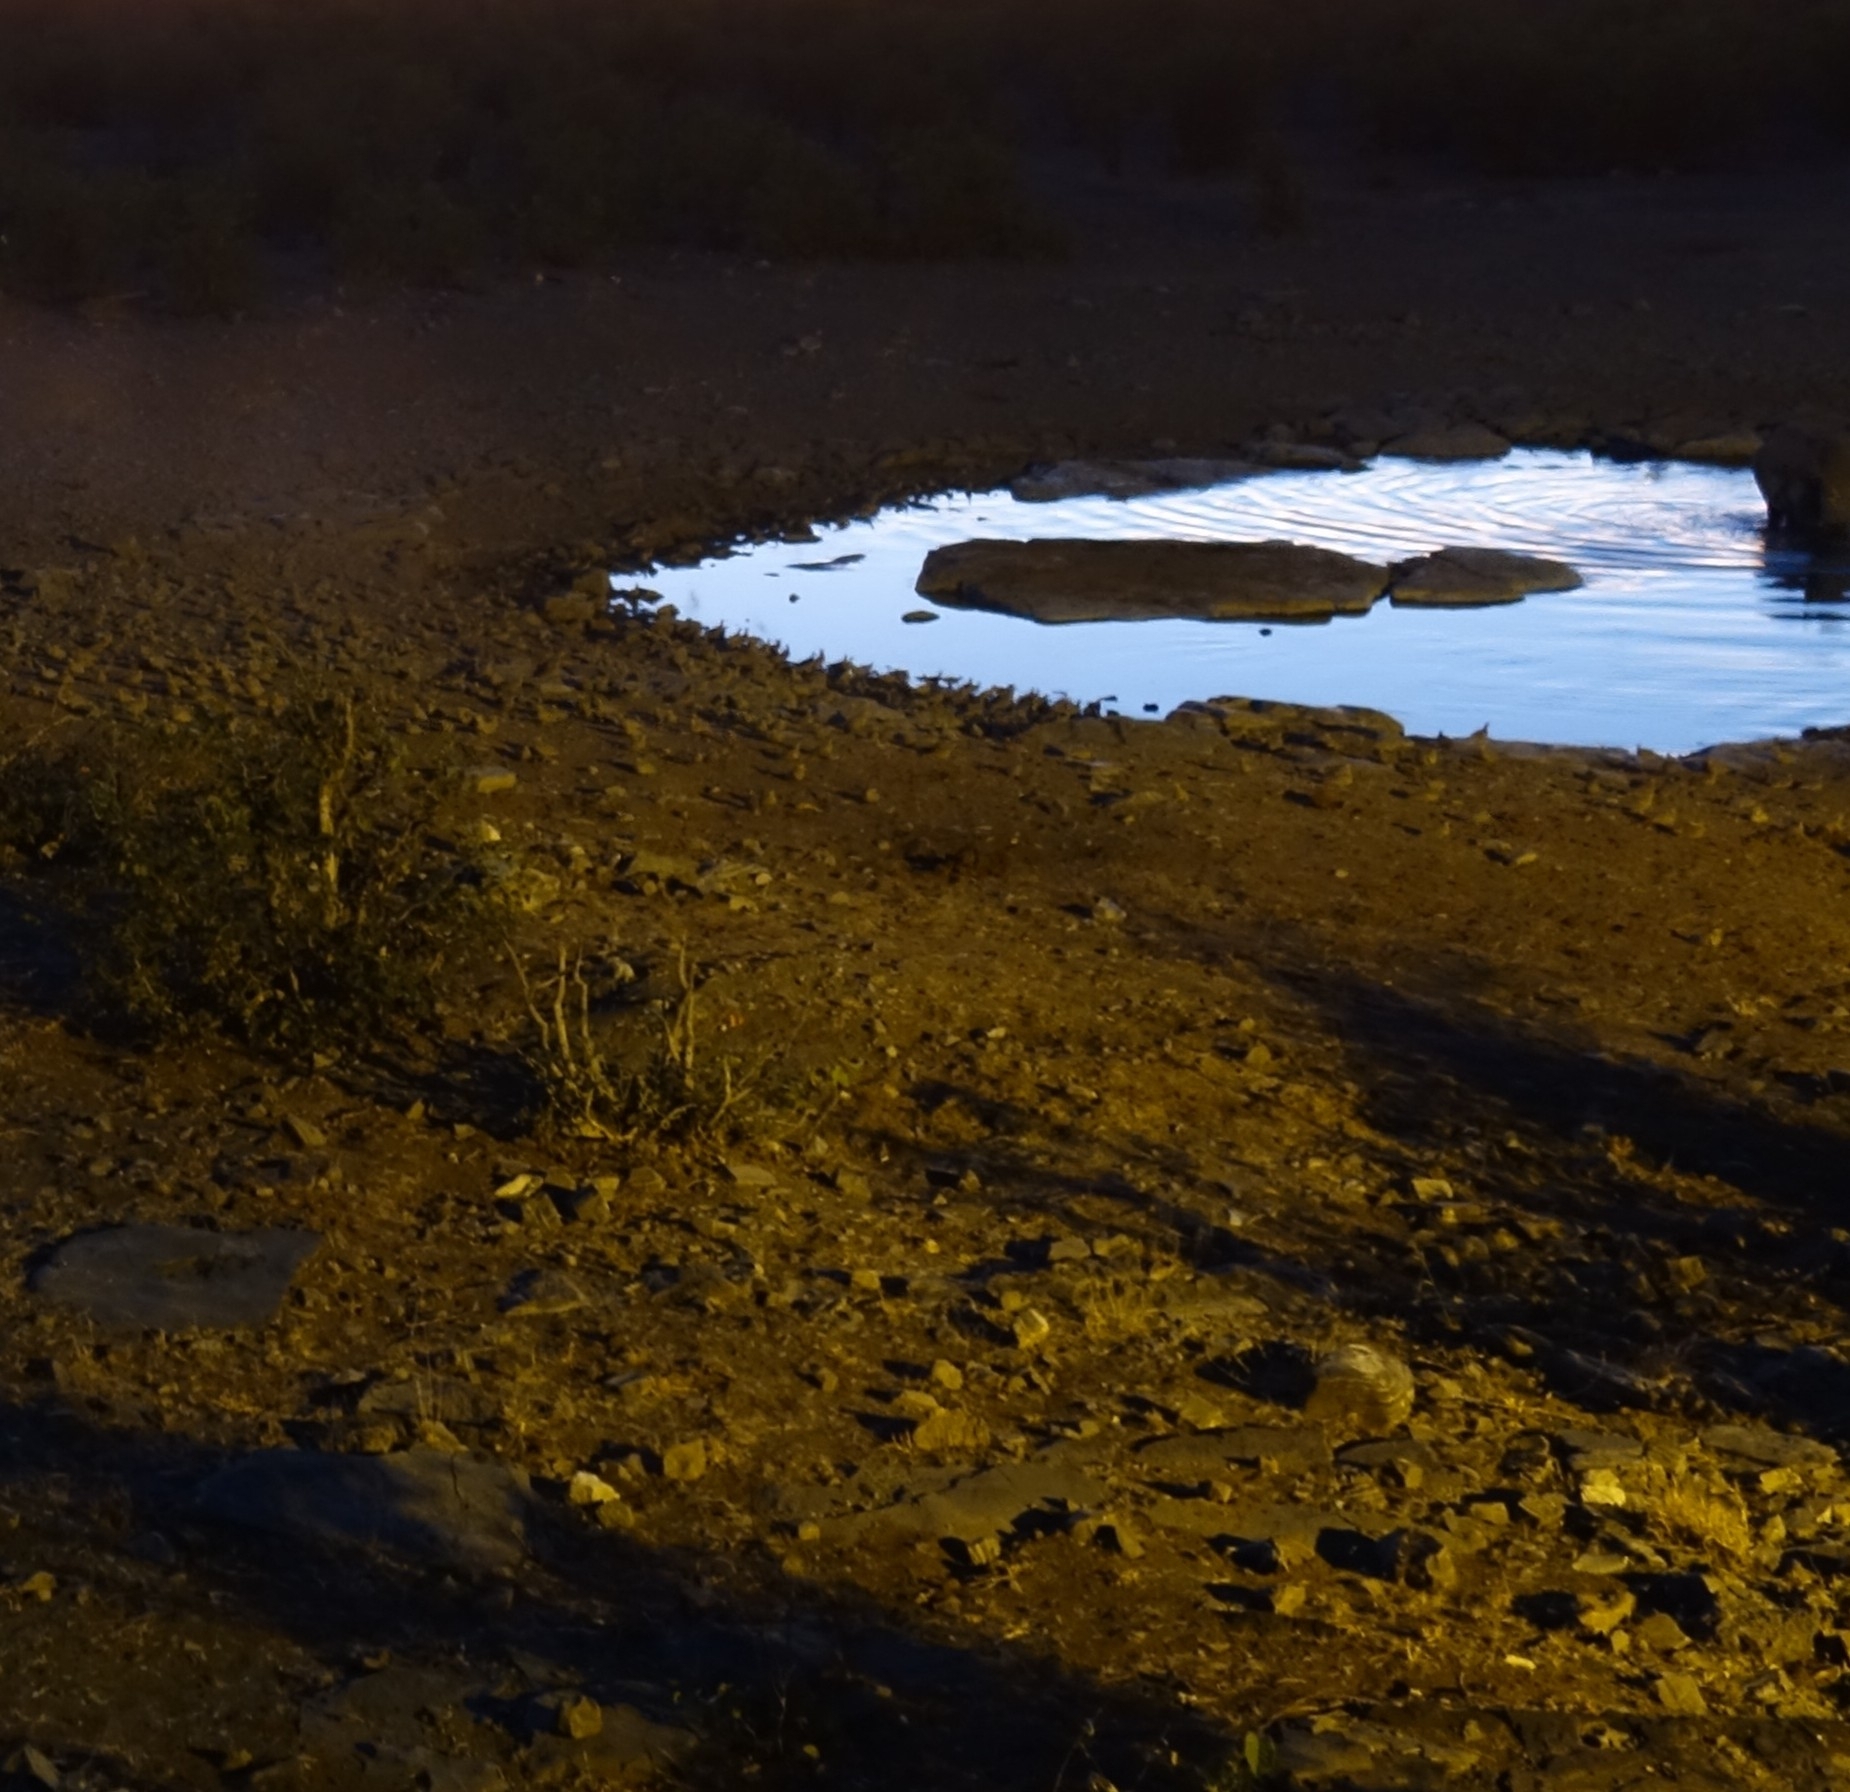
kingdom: Animalia
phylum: Chordata
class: Aves
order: Pteroclidiformes
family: Pteroclididae
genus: Pterocles
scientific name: Pterocles bicinctus
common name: Double-banded sandgrouse
